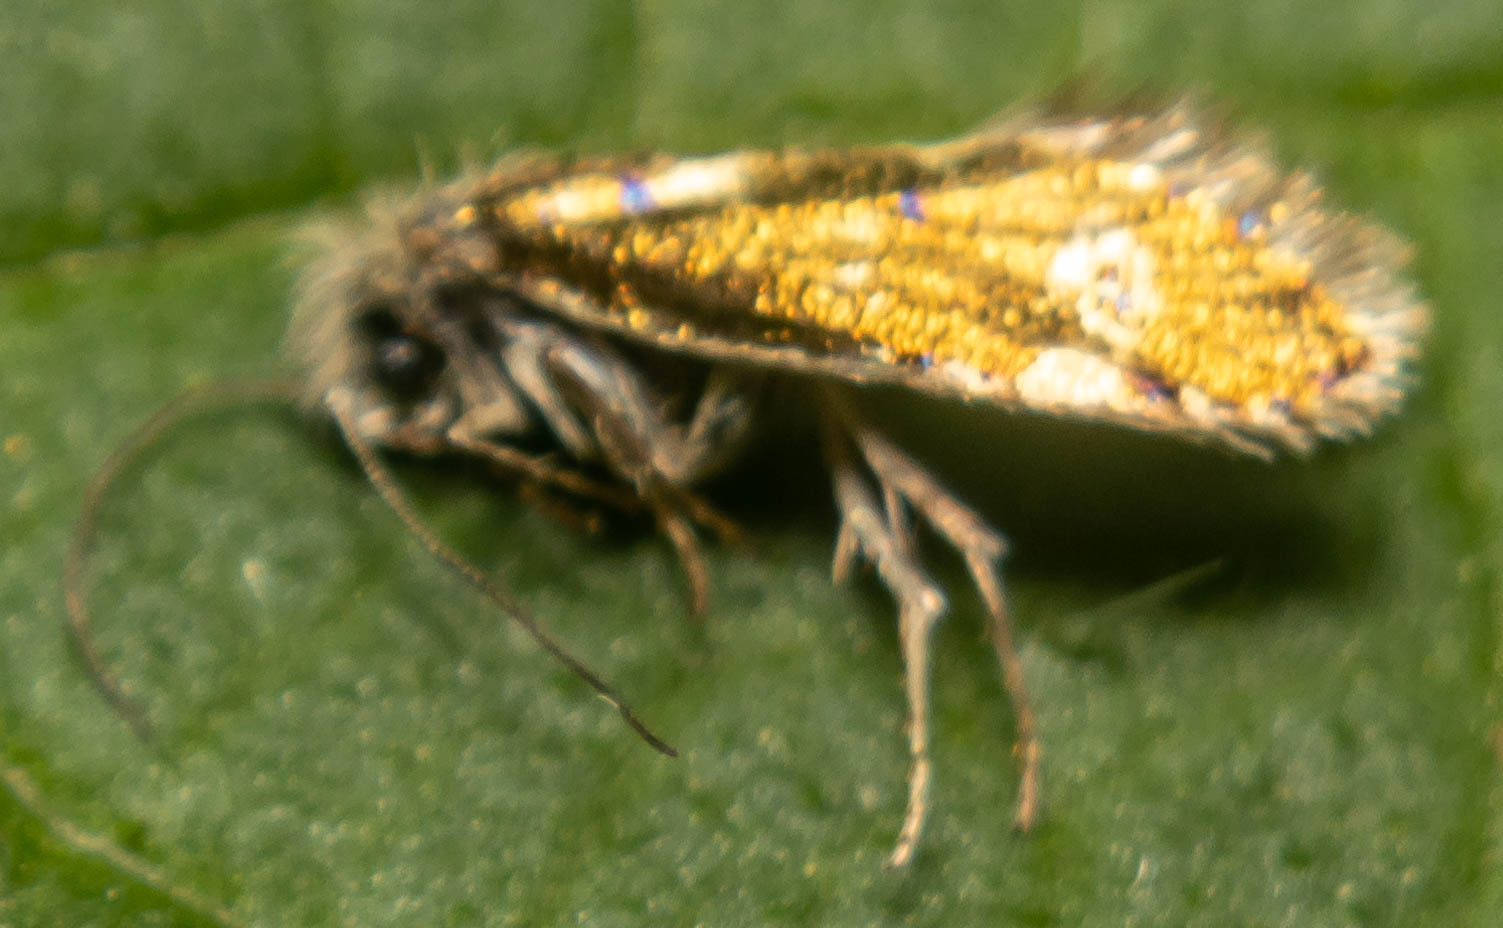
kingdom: Animalia
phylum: Arthropoda
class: Insecta
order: Lepidoptera
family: Eriocraniidae
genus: Dyseriocrania
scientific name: Dyseriocrania subpurpurella
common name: Common oak purple
